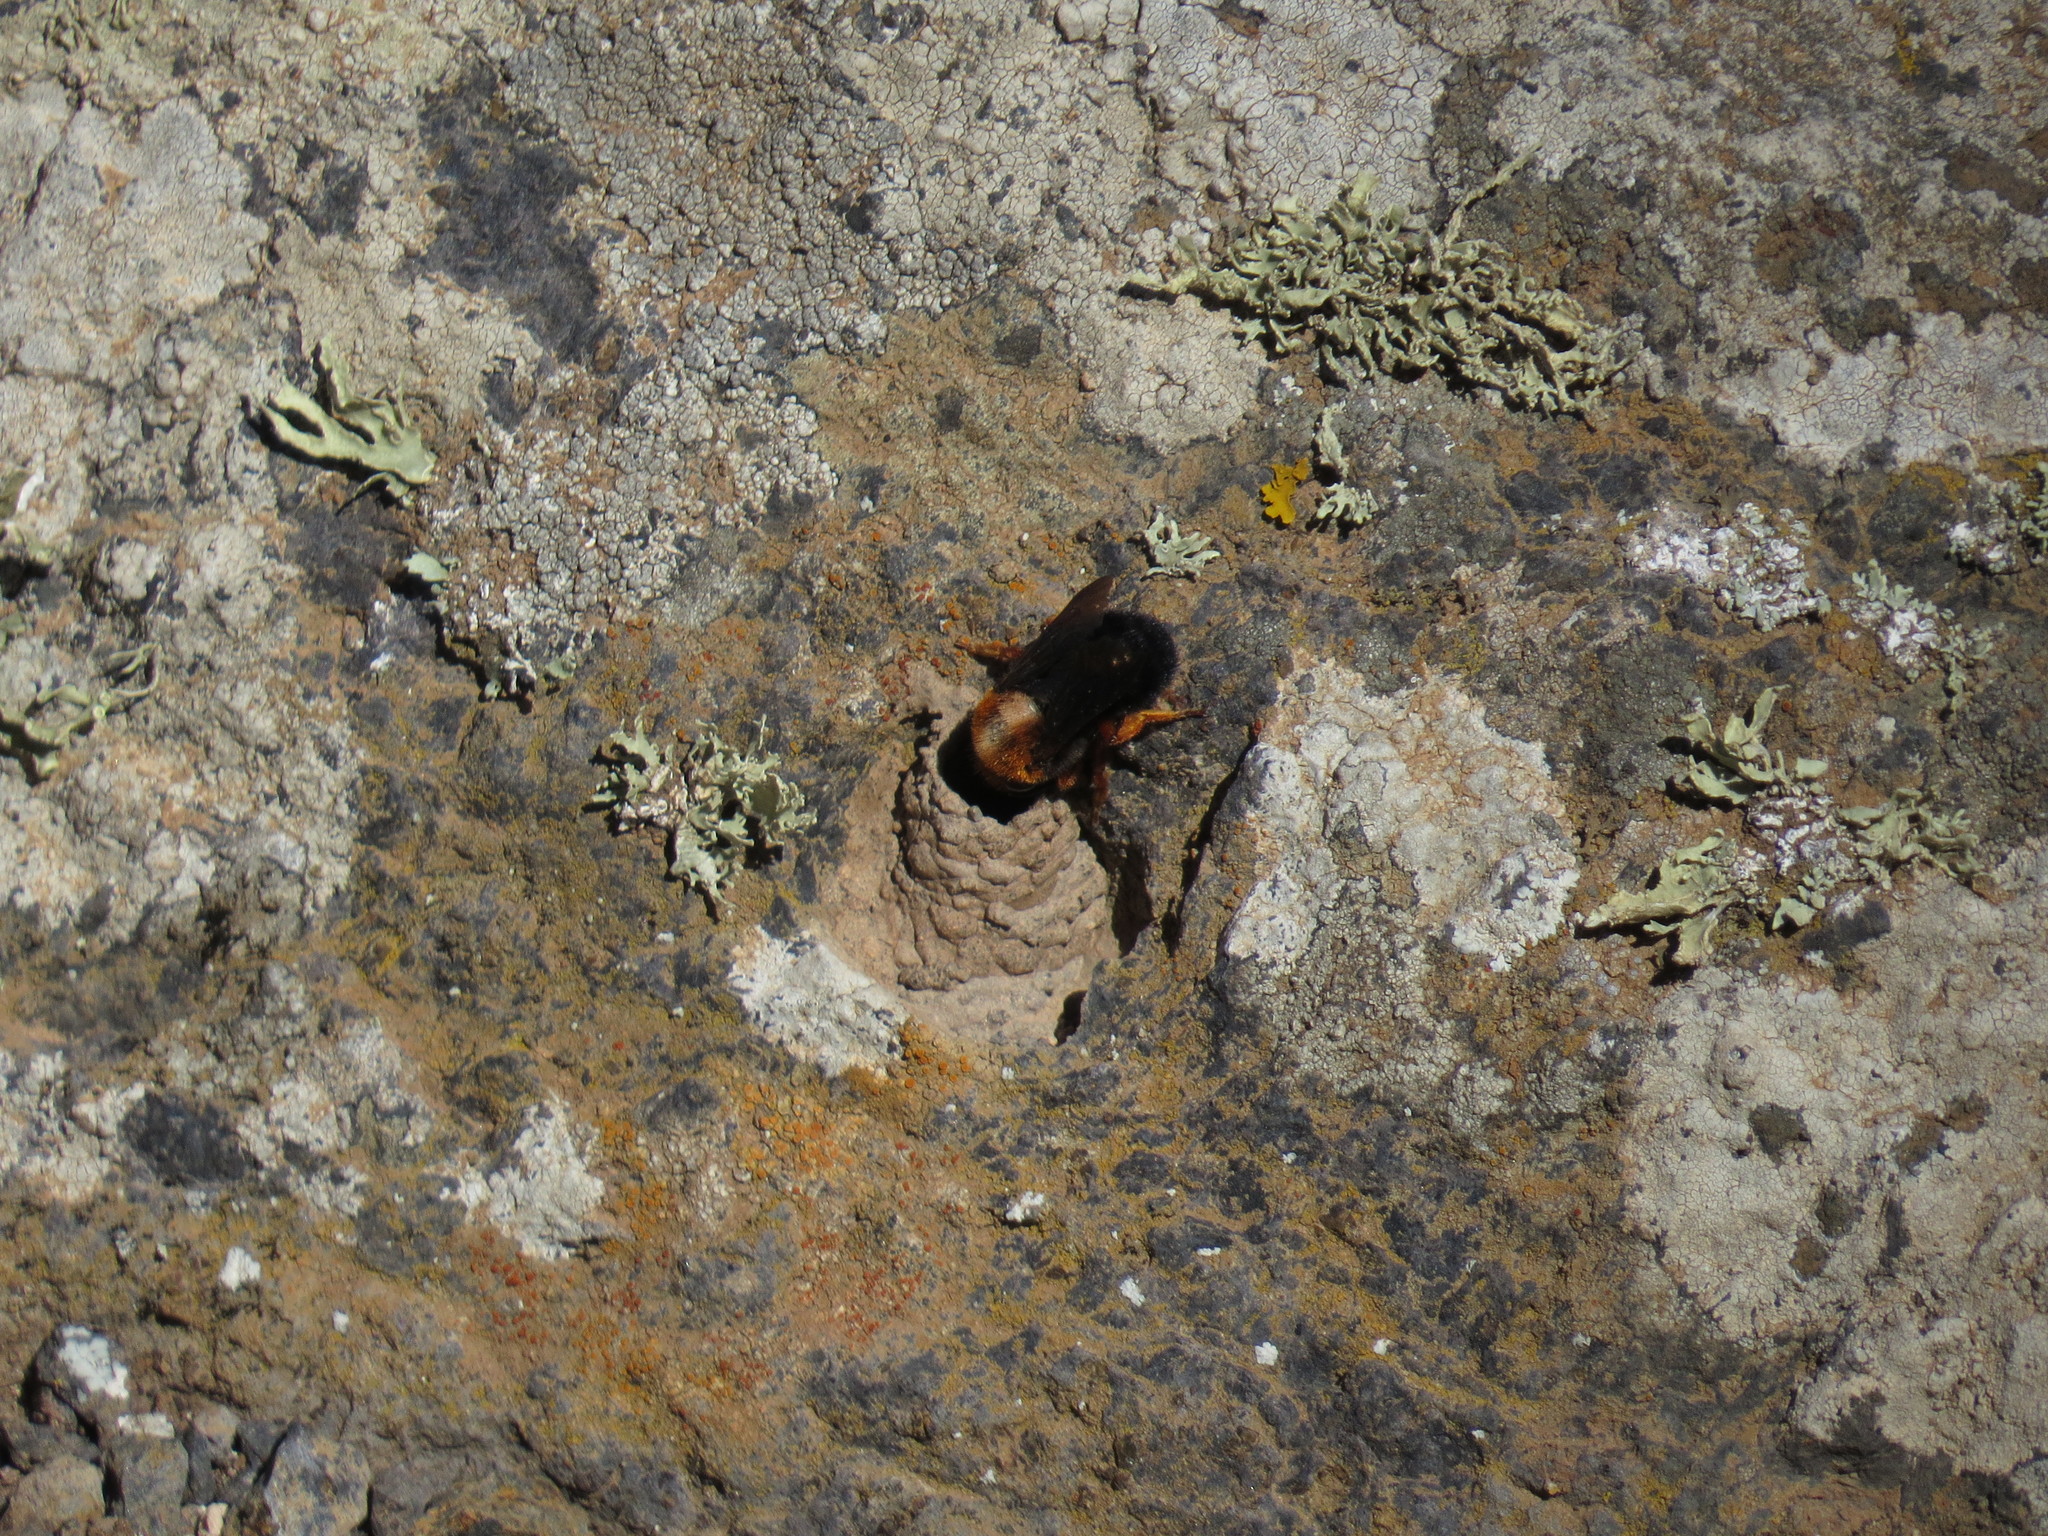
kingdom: Animalia
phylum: Arthropoda
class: Insecta
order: Hymenoptera
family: Megachilidae
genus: Megachile
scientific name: Megachile sicula
